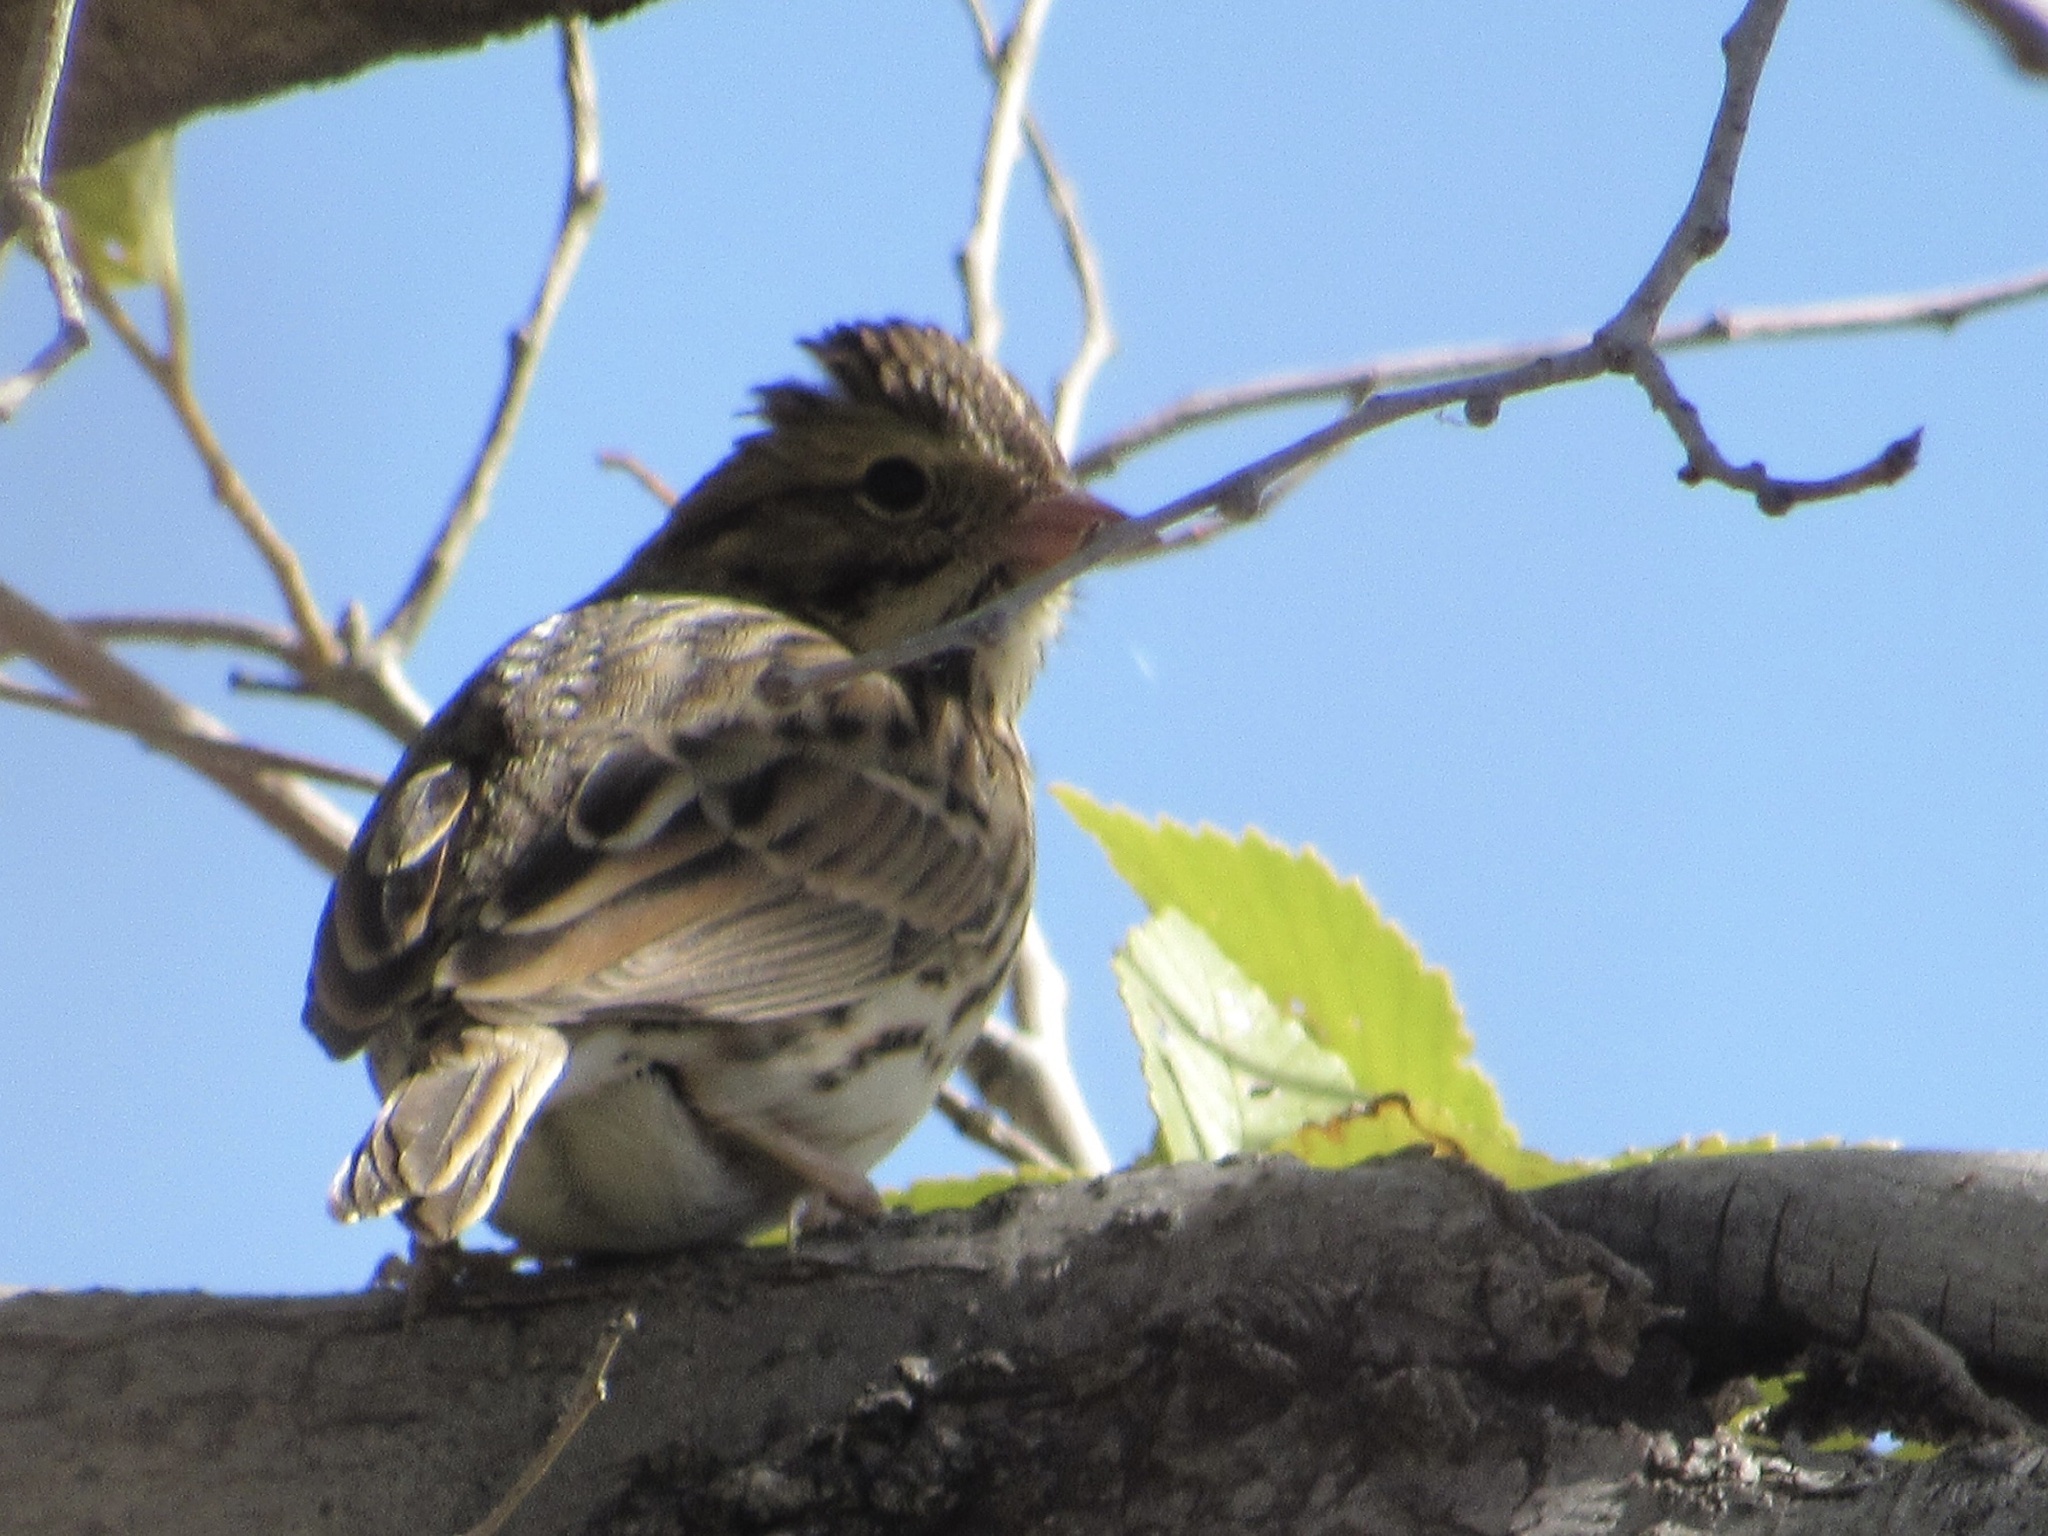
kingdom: Animalia
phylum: Chordata
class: Aves
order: Passeriformes
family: Passerellidae
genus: Passerculus
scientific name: Passerculus sandwichensis
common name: Savannah sparrow
